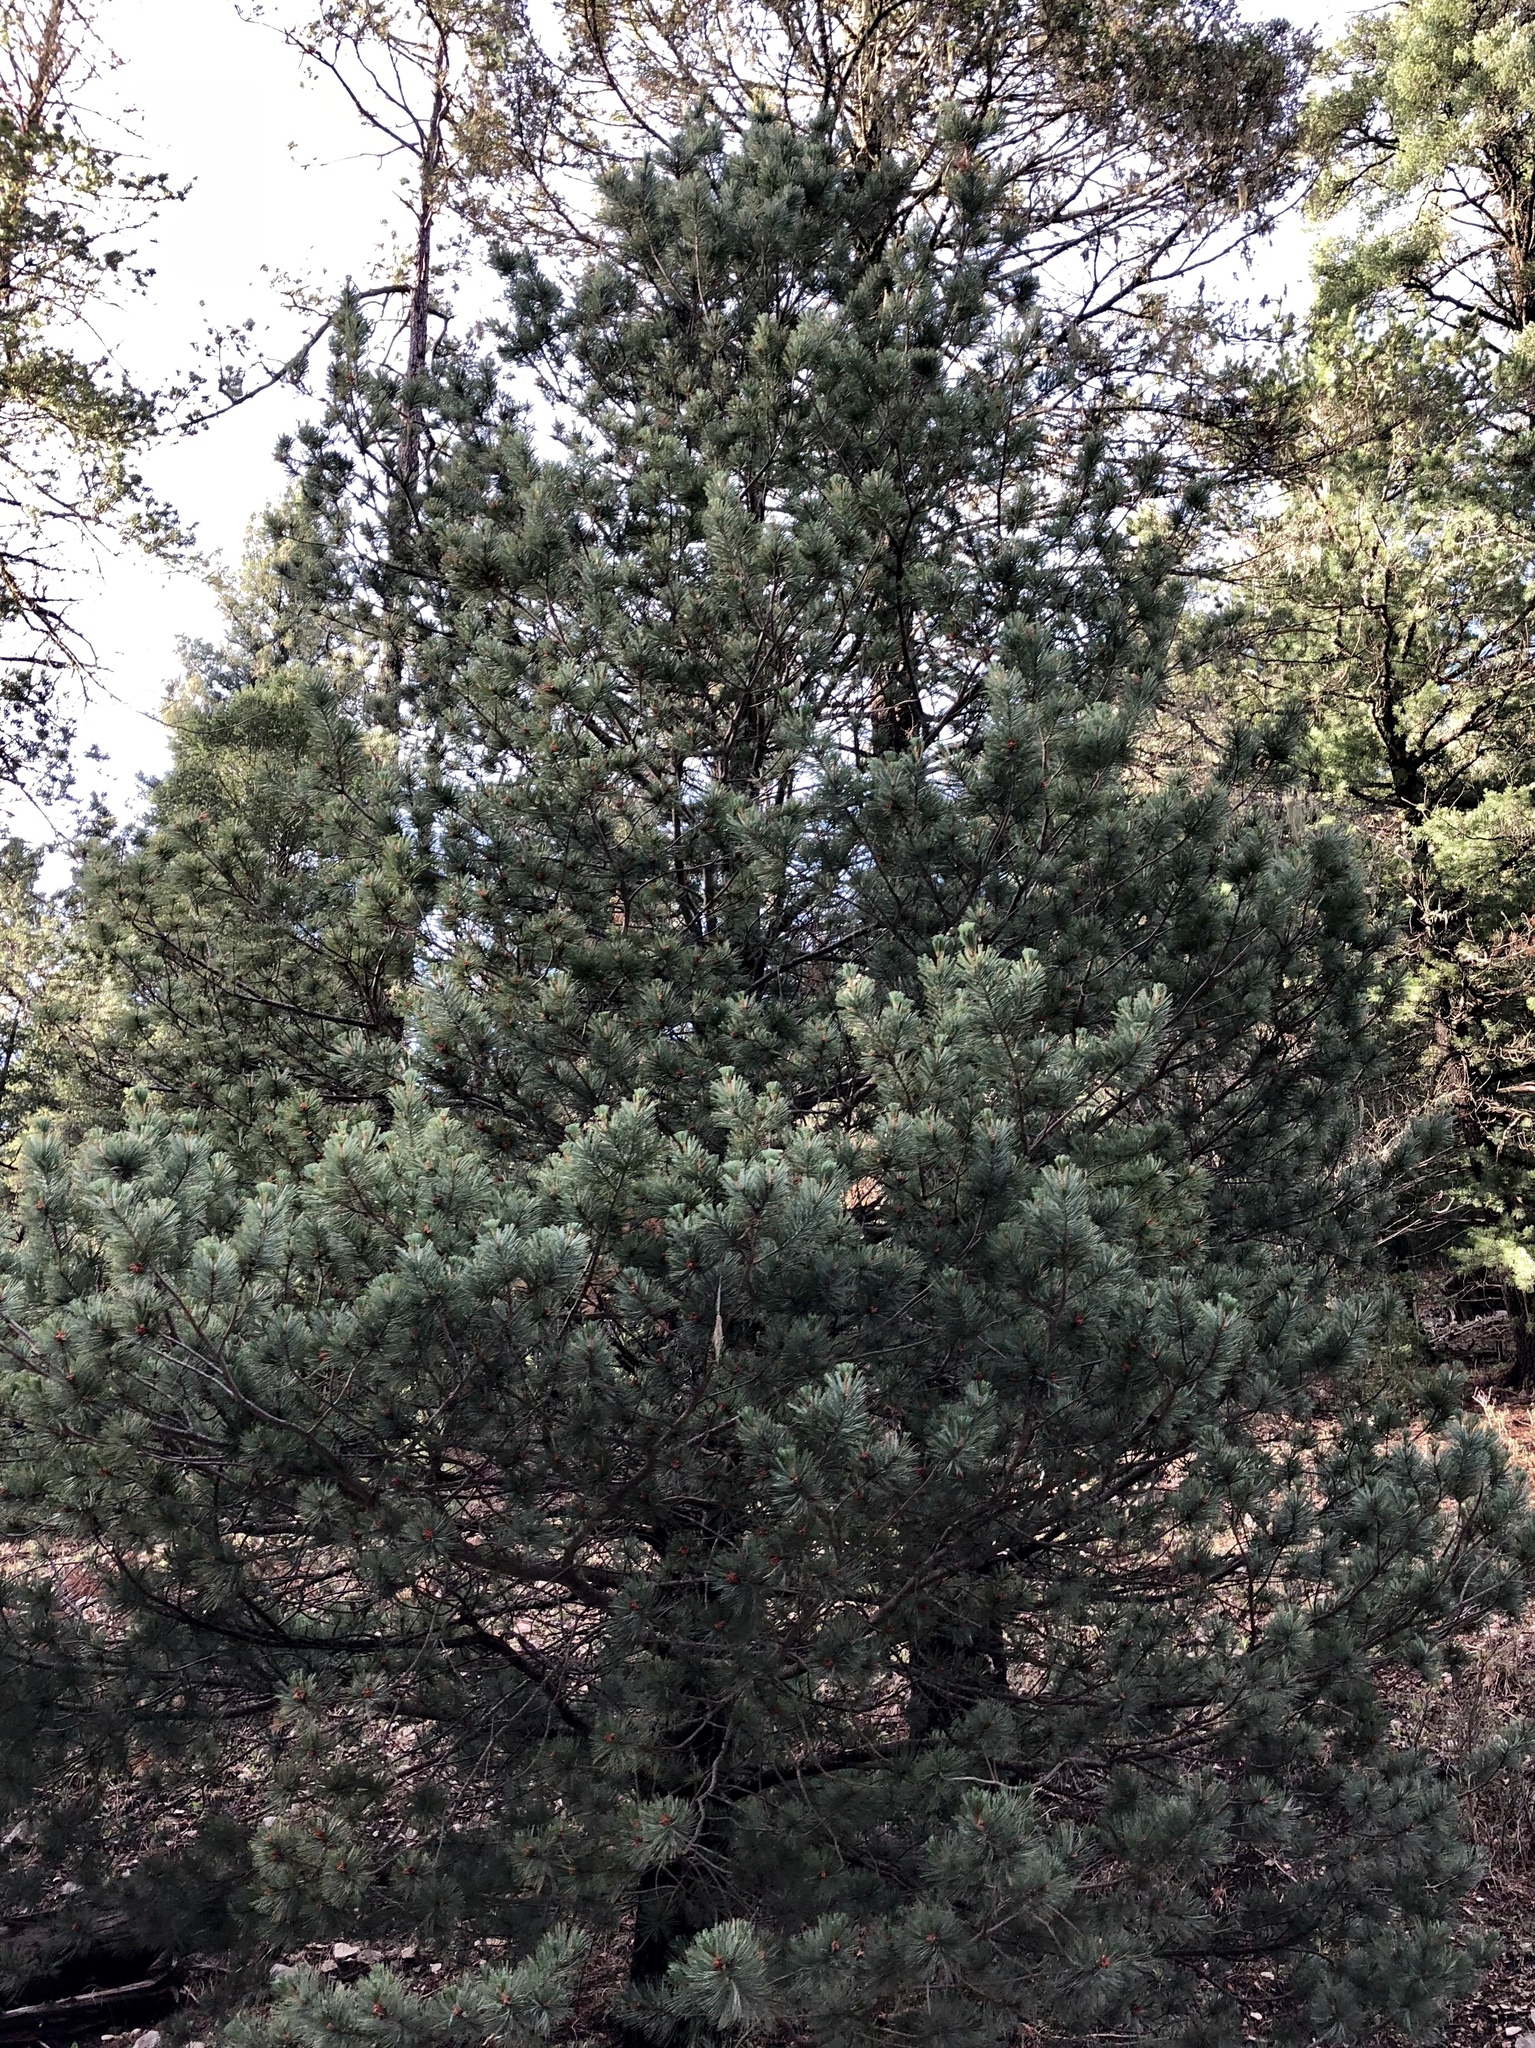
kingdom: Plantae
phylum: Tracheophyta
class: Pinopsida
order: Pinales
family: Pinaceae
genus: Pinus
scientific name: Pinus strobiformis
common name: Southwestern white pine
